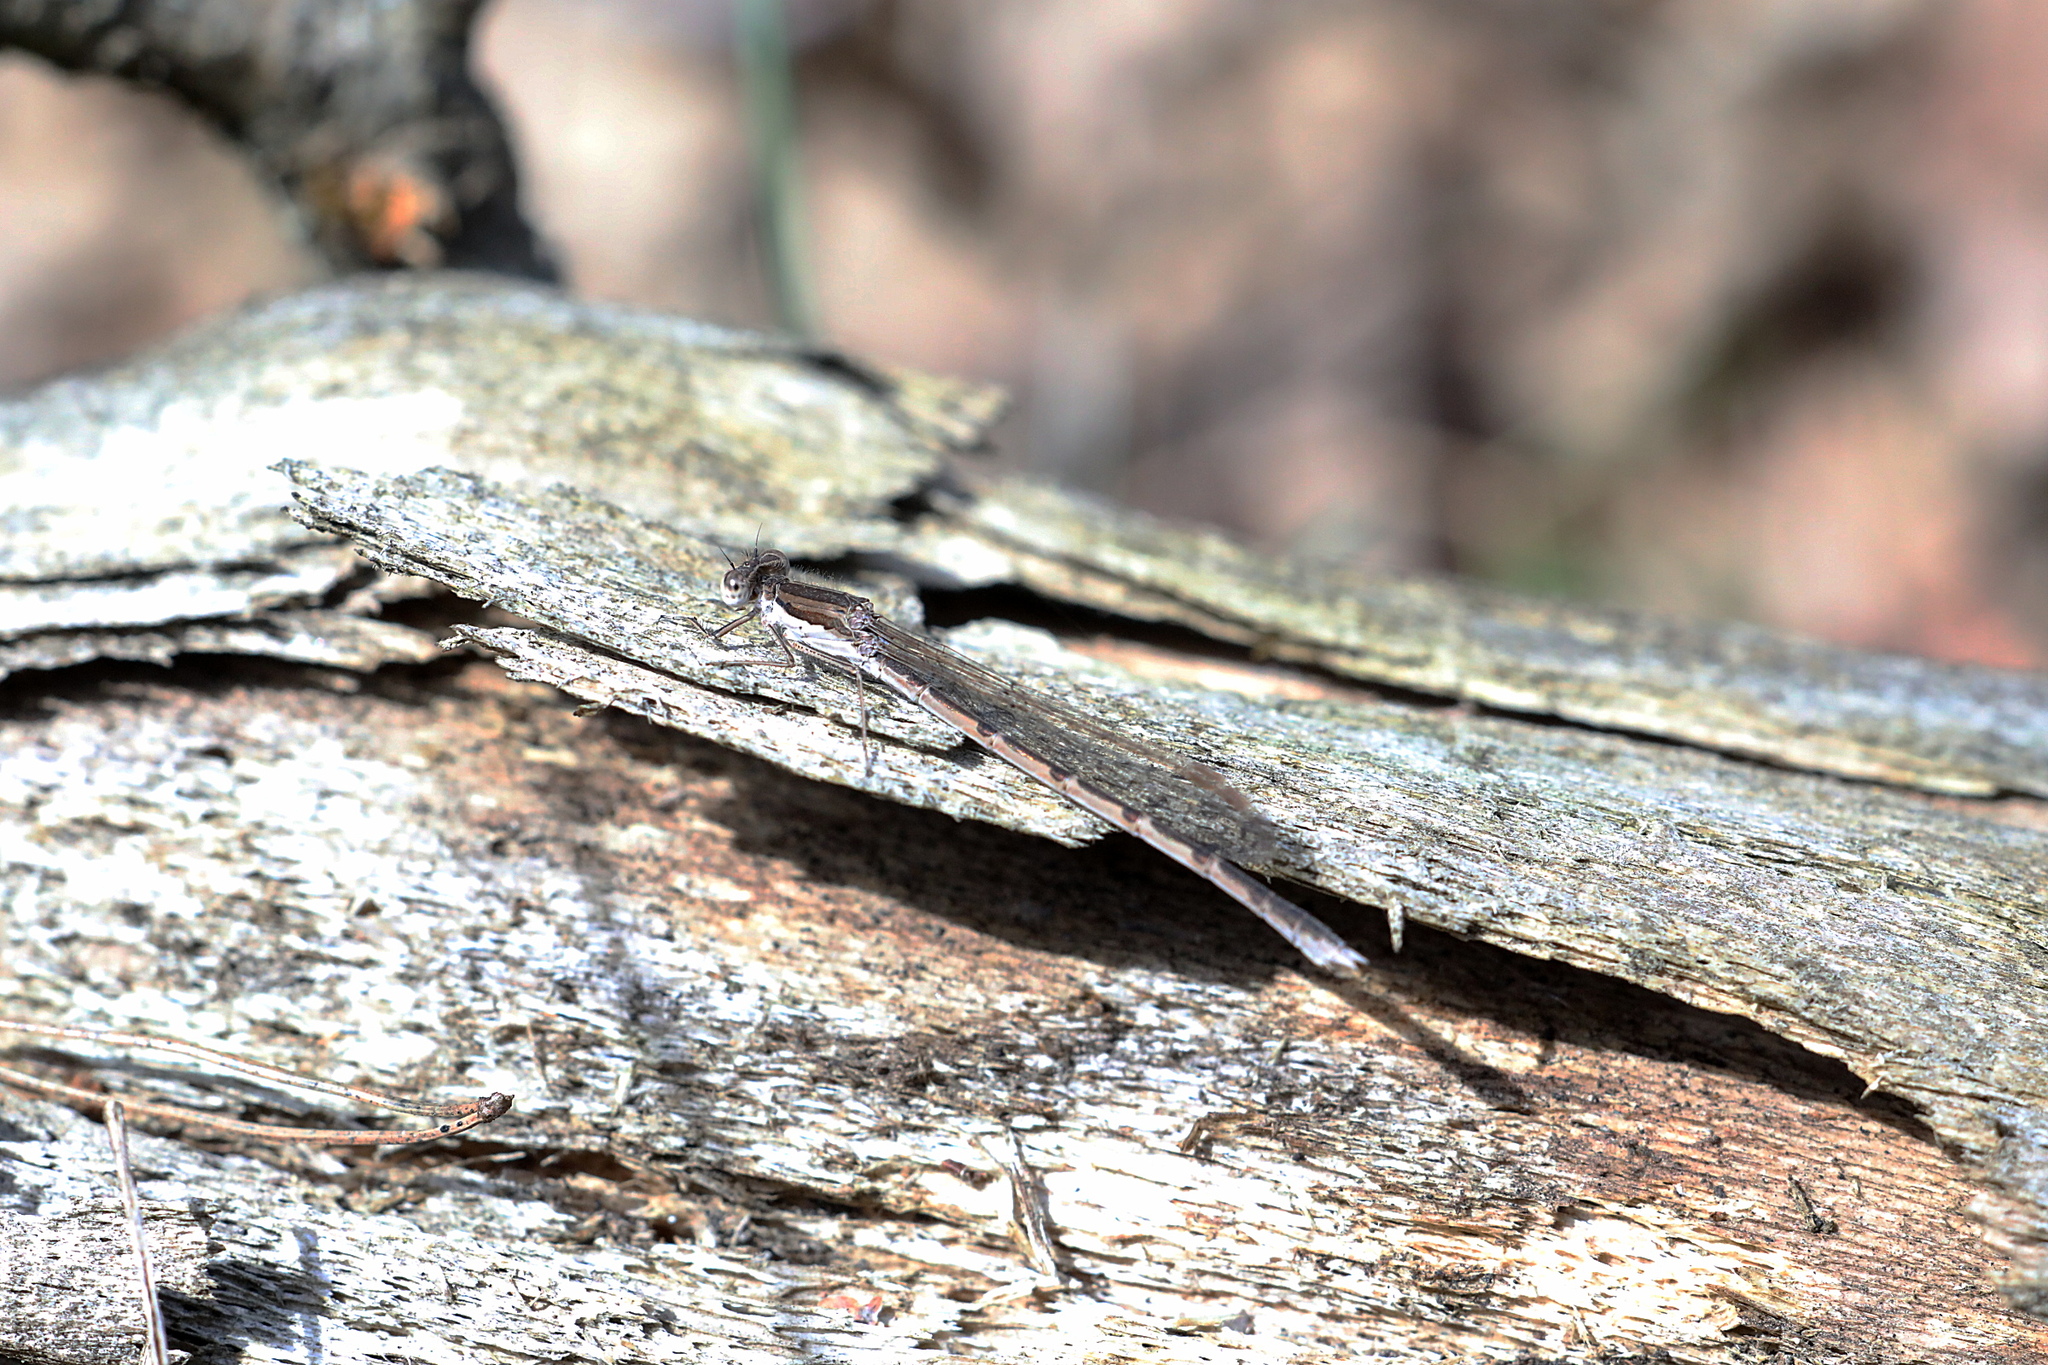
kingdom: Animalia
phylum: Arthropoda
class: Insecta
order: Odonata
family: Lestidae
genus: Sympecma
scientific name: Sympecma fusca
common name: Common winter damsel
